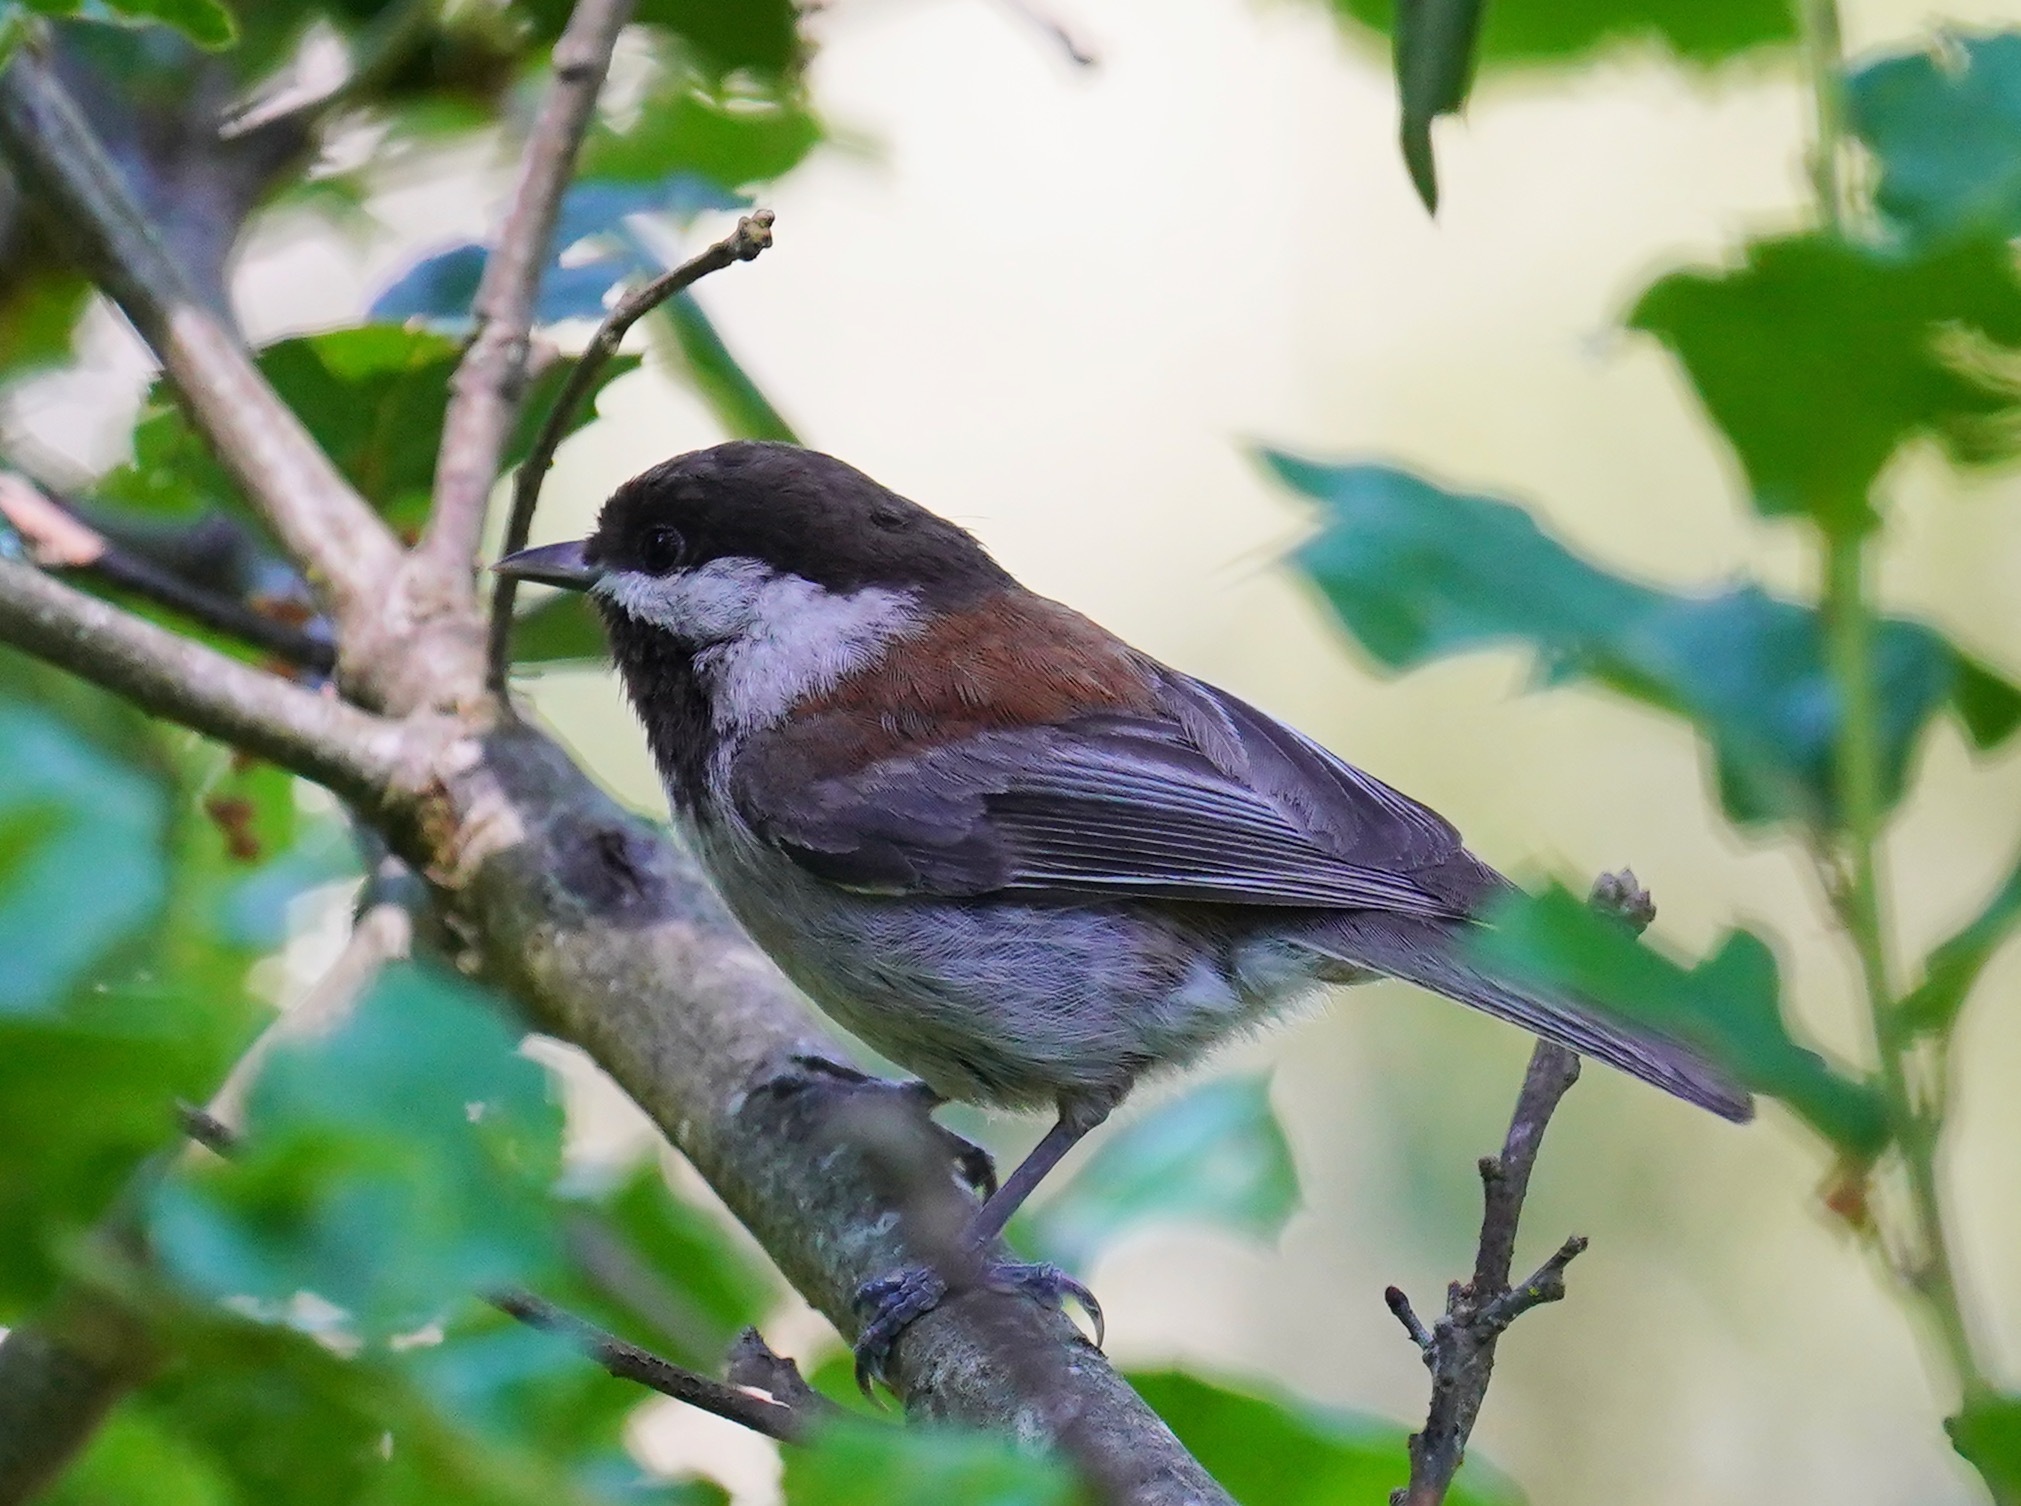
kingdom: Animalia
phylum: Chordata
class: Aves
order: Passeriformes
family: Paridae
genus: Poecile
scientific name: Poecile rufescens
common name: Chestnut-backed chickadee
